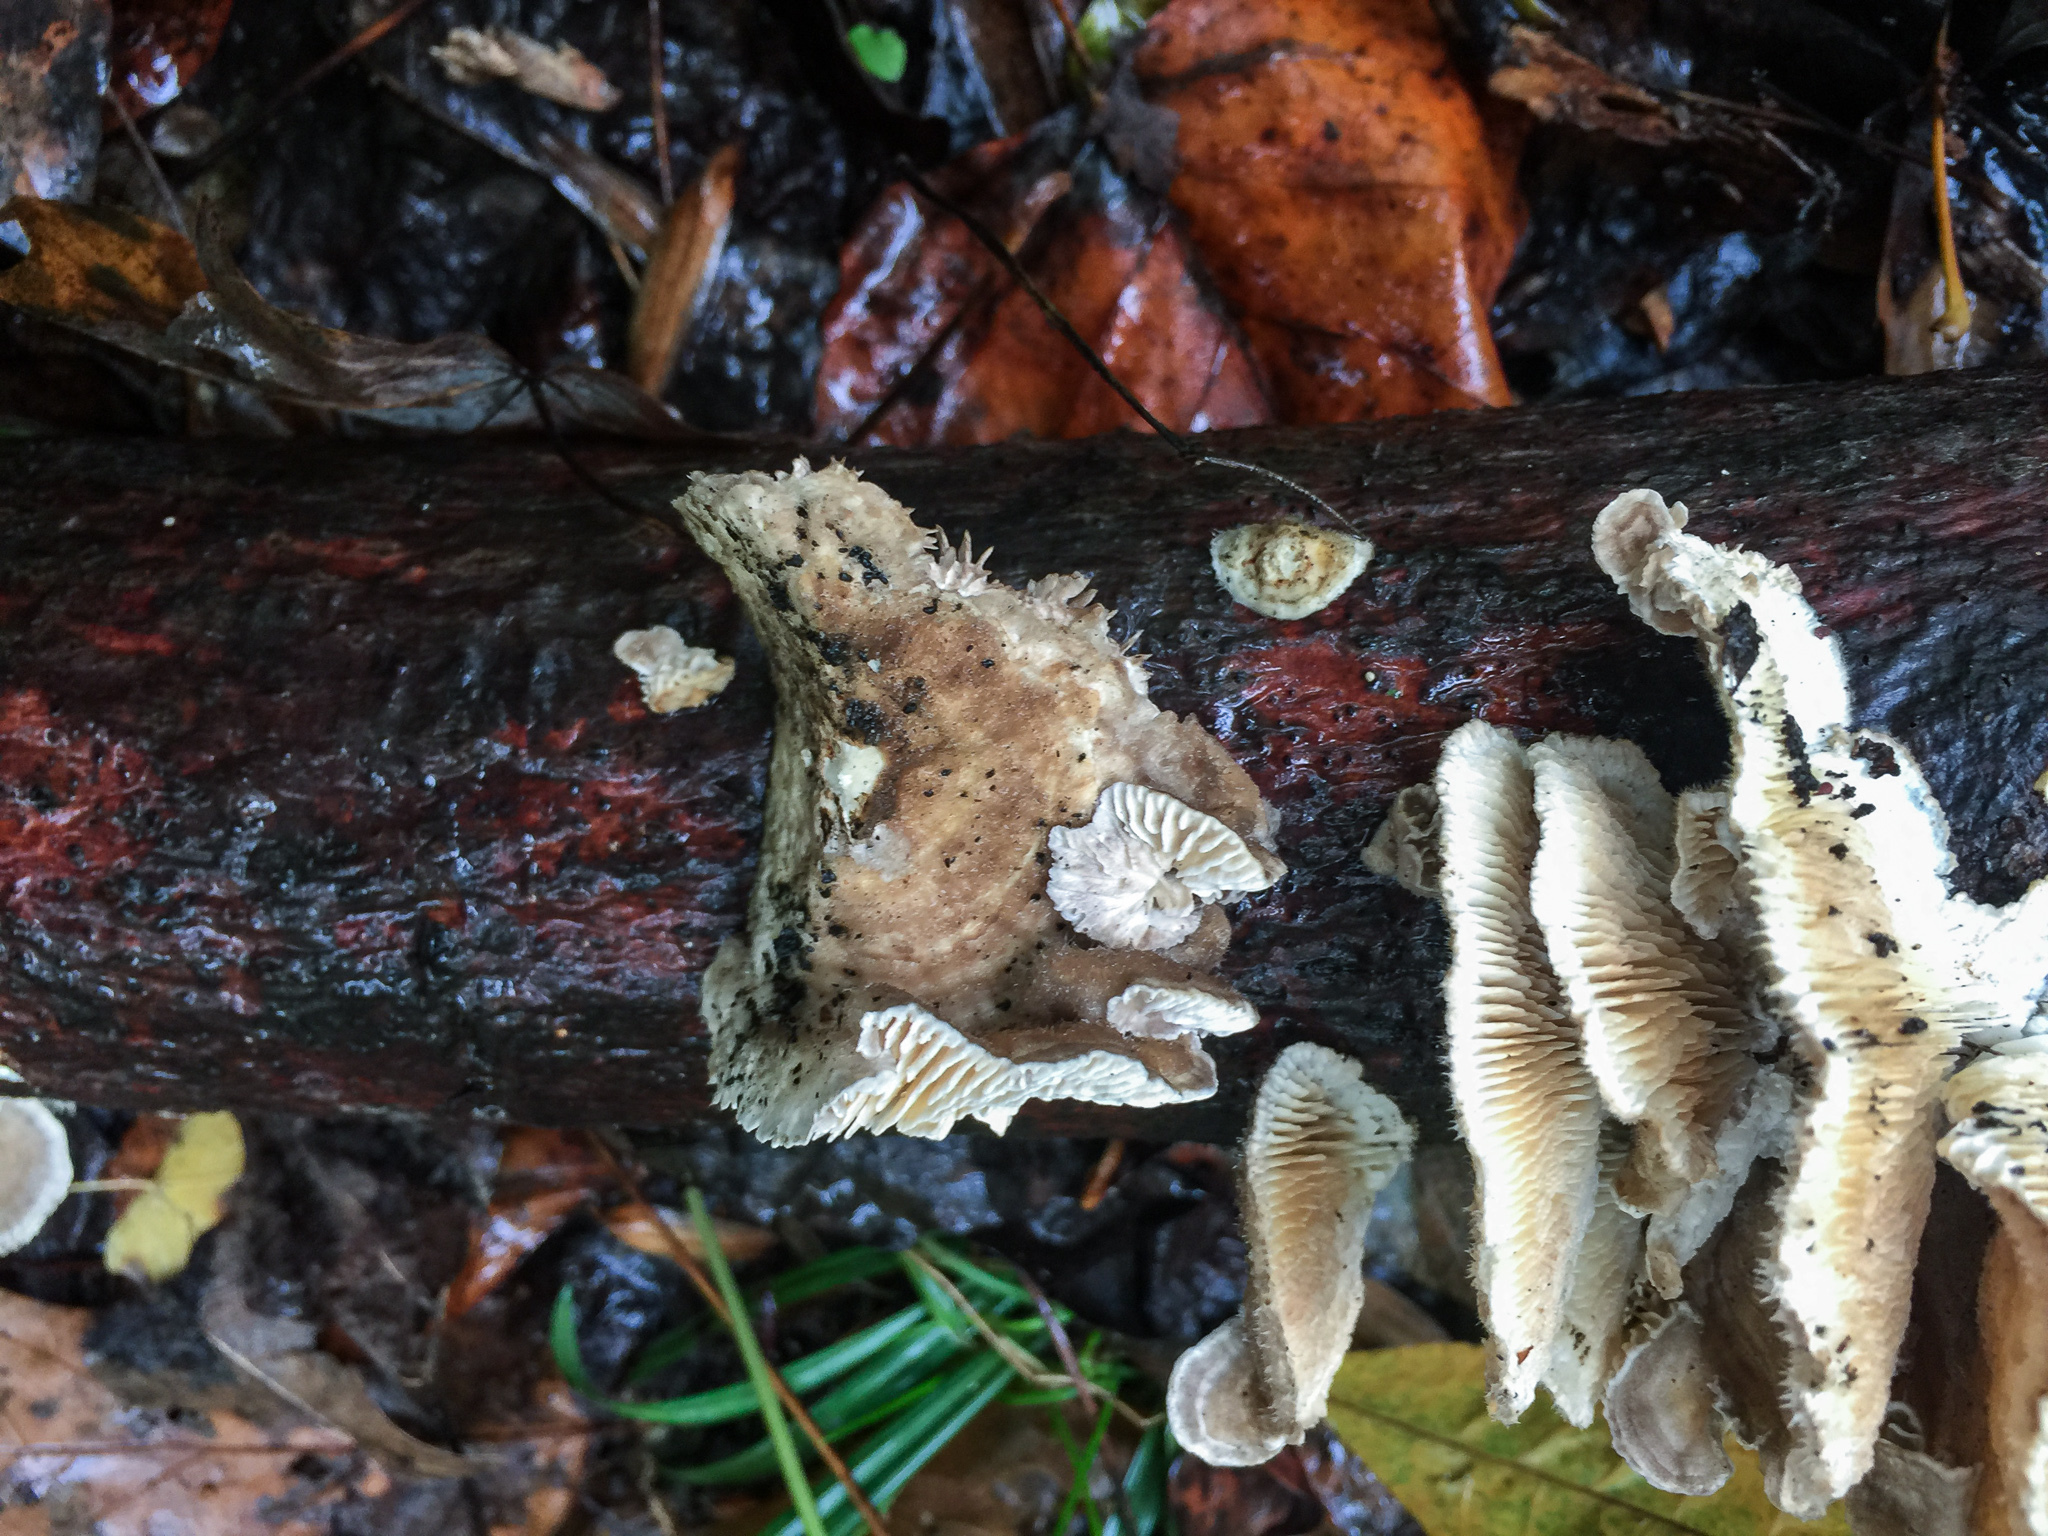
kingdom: Fungi
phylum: Basidiomycota
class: Agaricomycetes
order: Polyporales
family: Polyporaceae
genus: Lenzites
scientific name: Lenzites betulinus
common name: Birch mazegill
